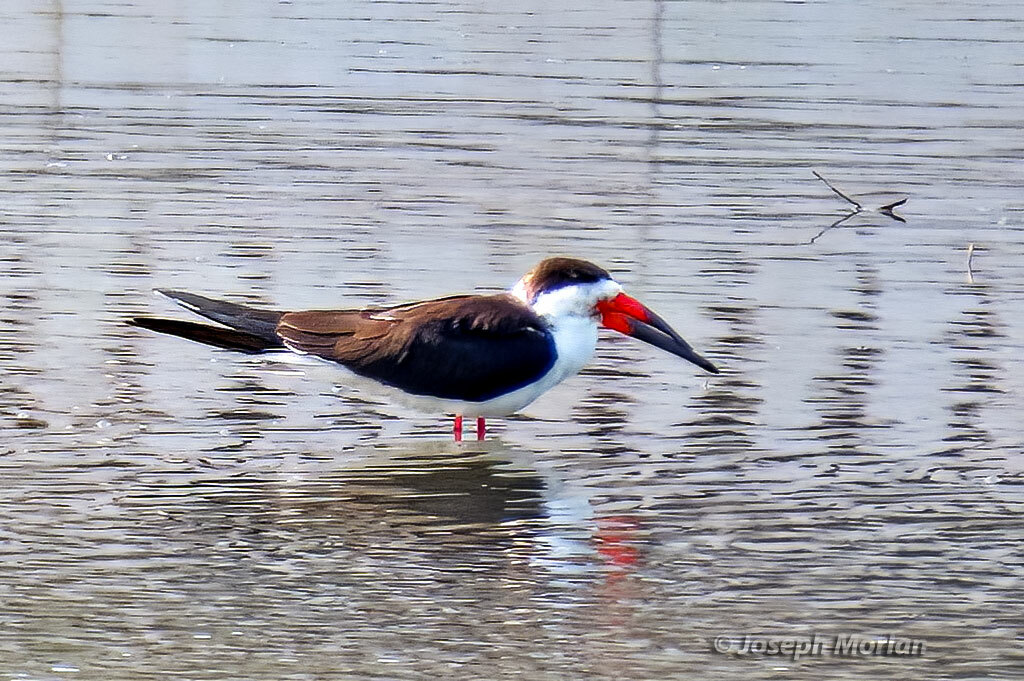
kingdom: Animalia
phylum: Chordata
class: Aves
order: Charadriiformes
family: Laridae
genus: Rynchops
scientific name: Rynchops niger
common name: Black skimmer
